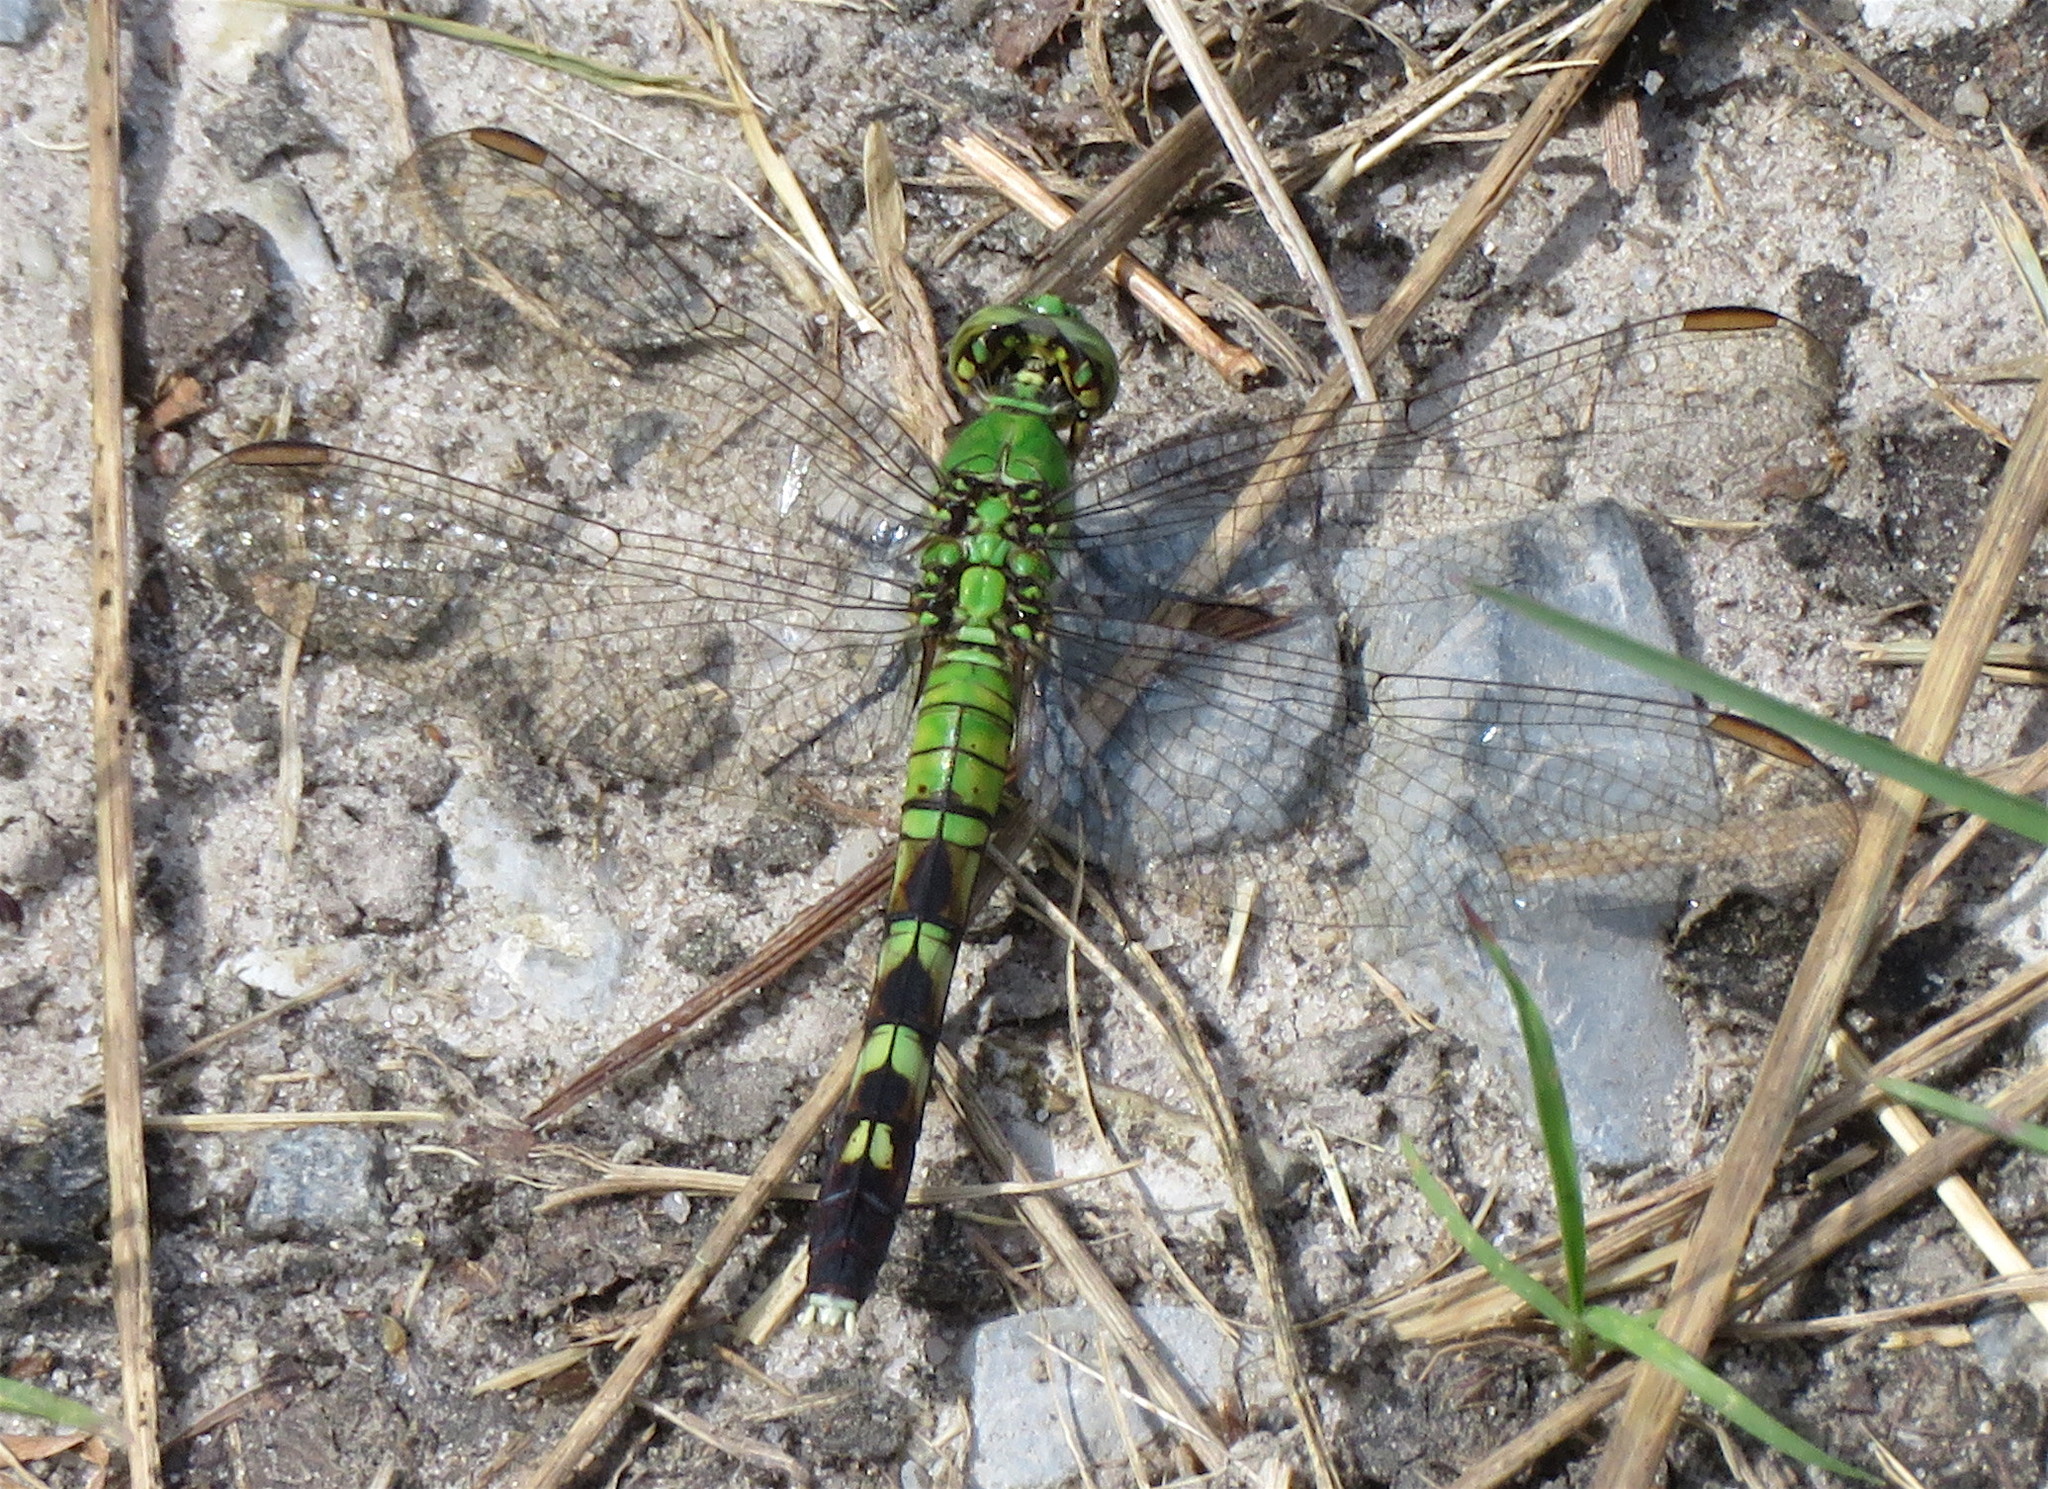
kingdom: Animalia
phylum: Arthropoda
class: Insecta
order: Odonata
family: Libellulidae
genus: Erythemis
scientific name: Erythemis simplicicollis
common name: Eastern pondhawk
